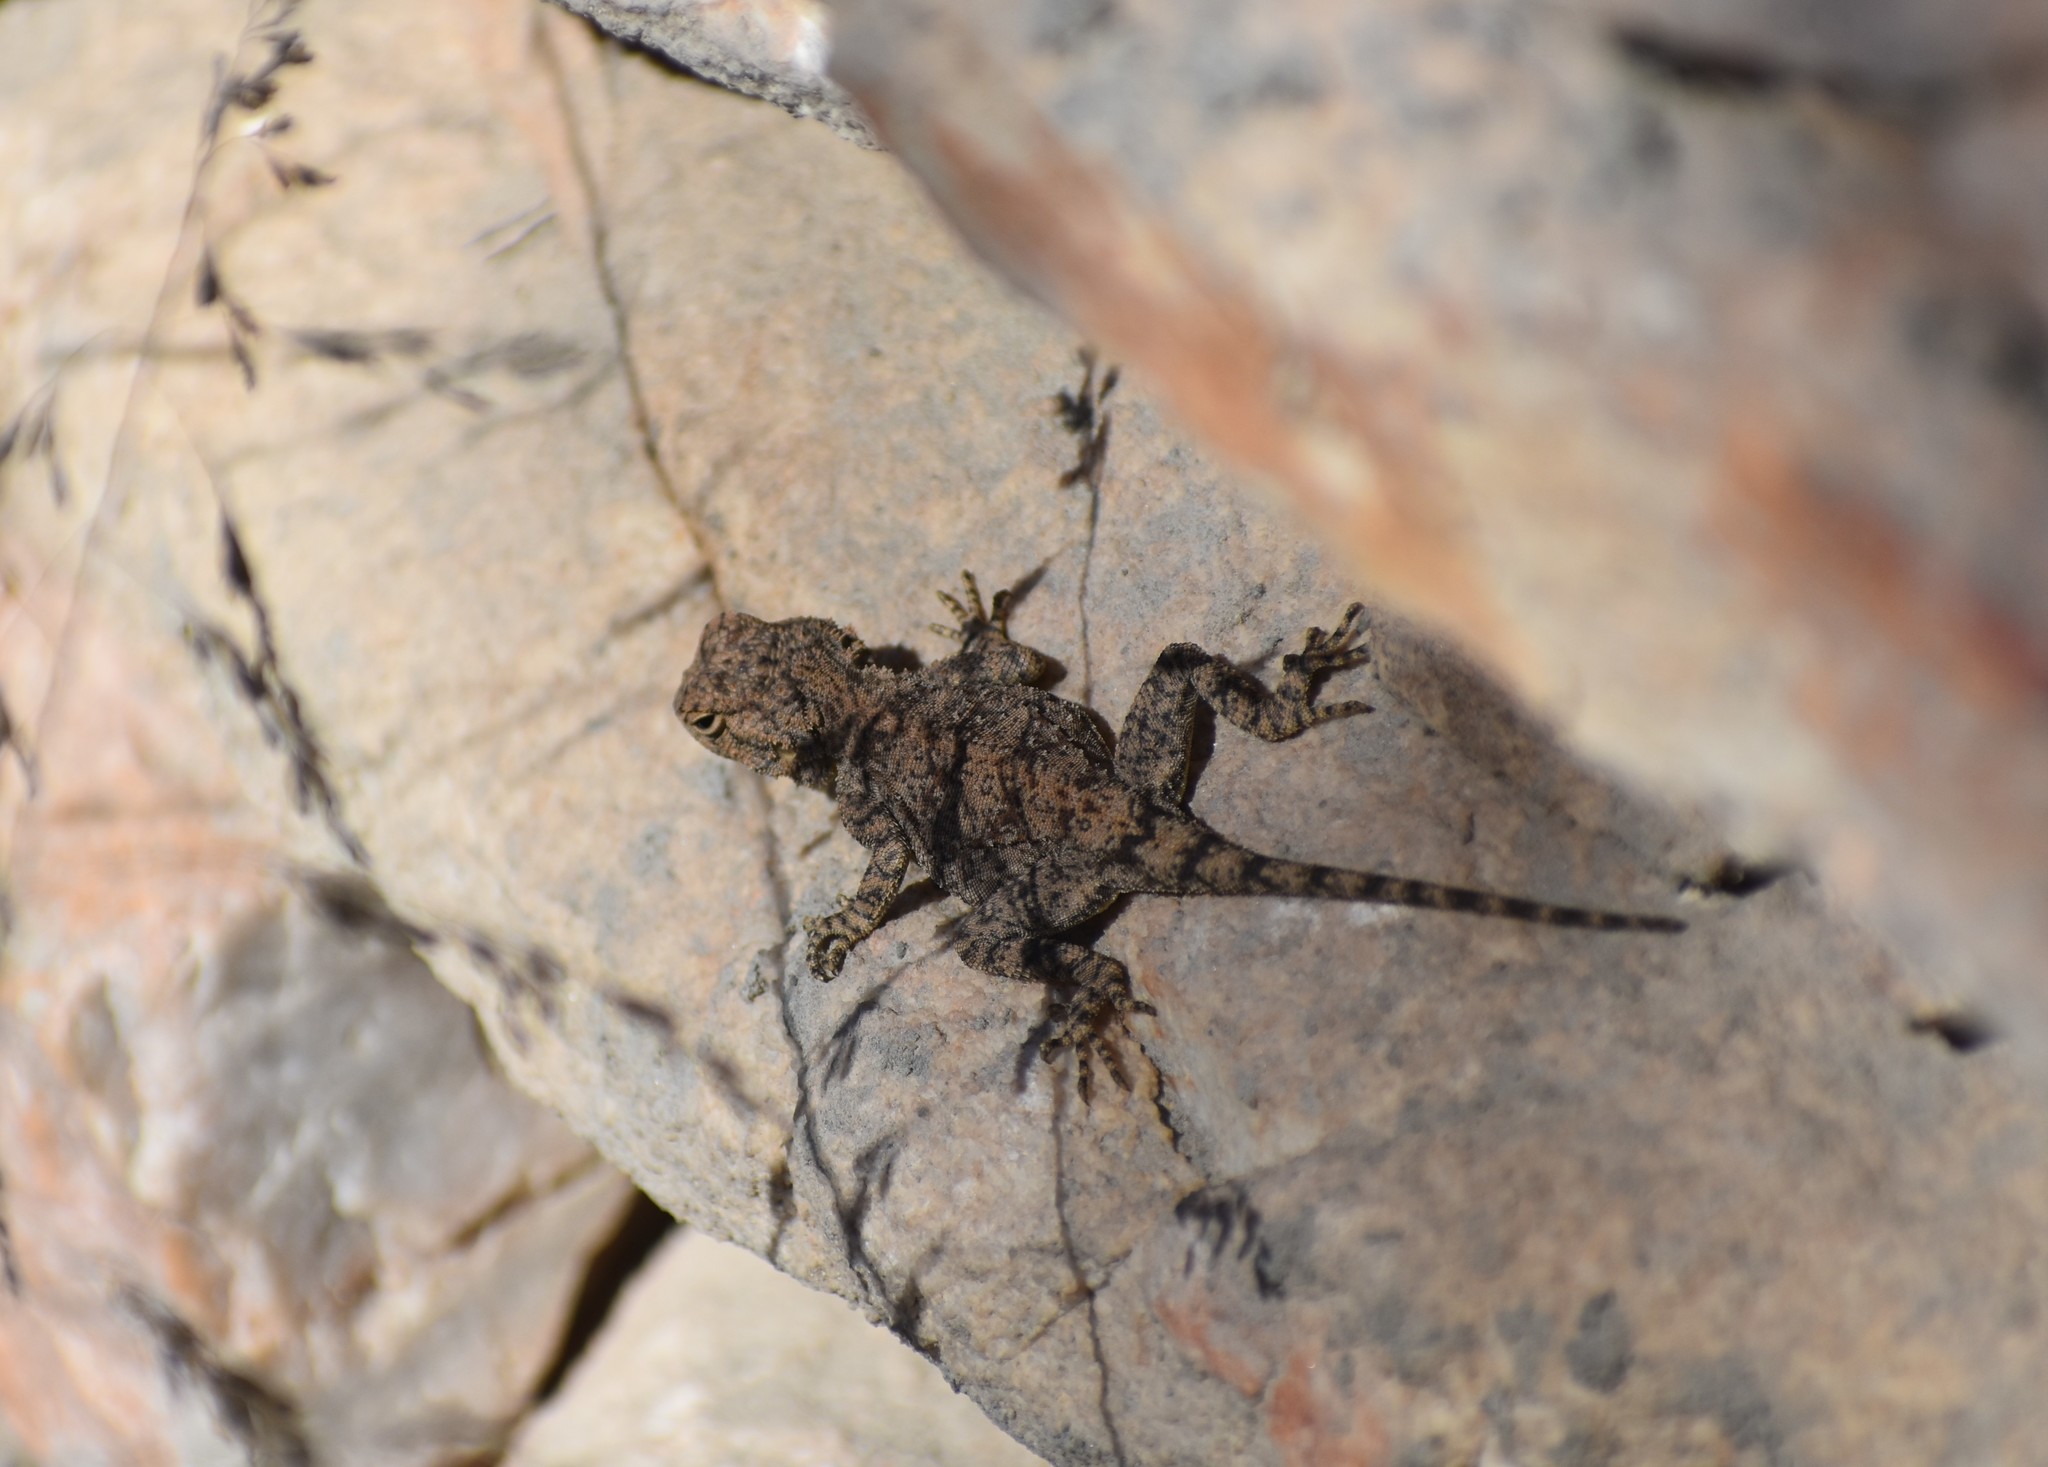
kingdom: Animalia
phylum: Chordata
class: Squamata
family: Agamidae
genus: Agama
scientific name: Agama atra
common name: Southern african rock agama
